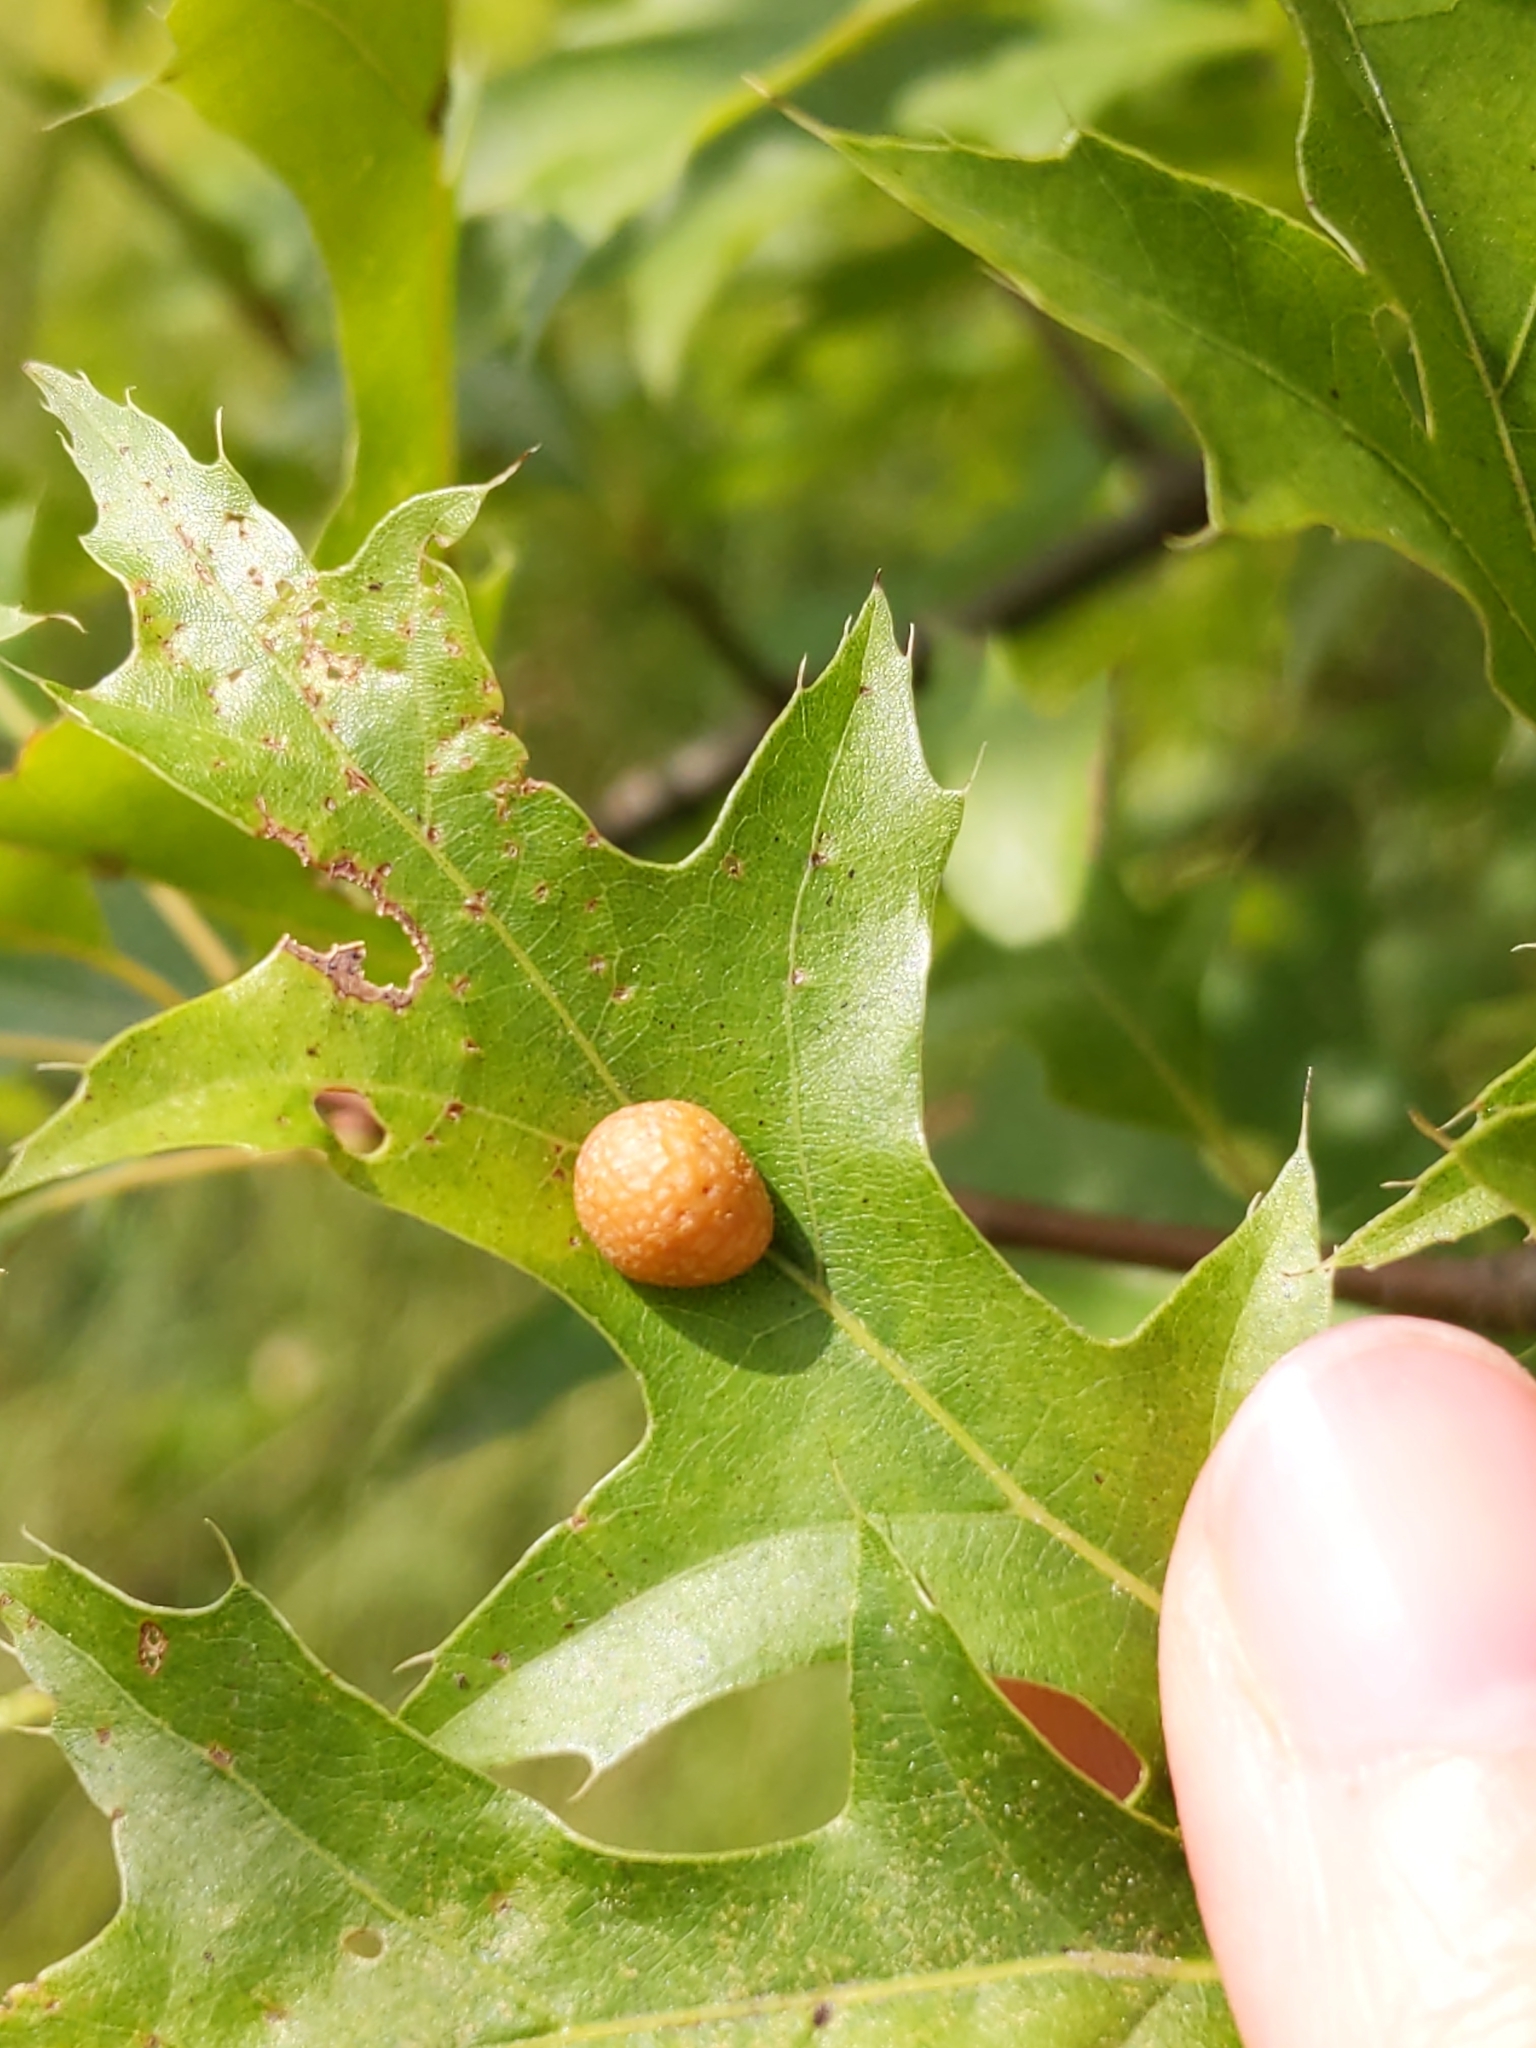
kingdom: Animalia
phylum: Arthropoda
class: Insecta
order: Diptera
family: Cecidomyiidae
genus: Polystepha
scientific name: Polystepha pilulae
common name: Oak leaf gall midge
